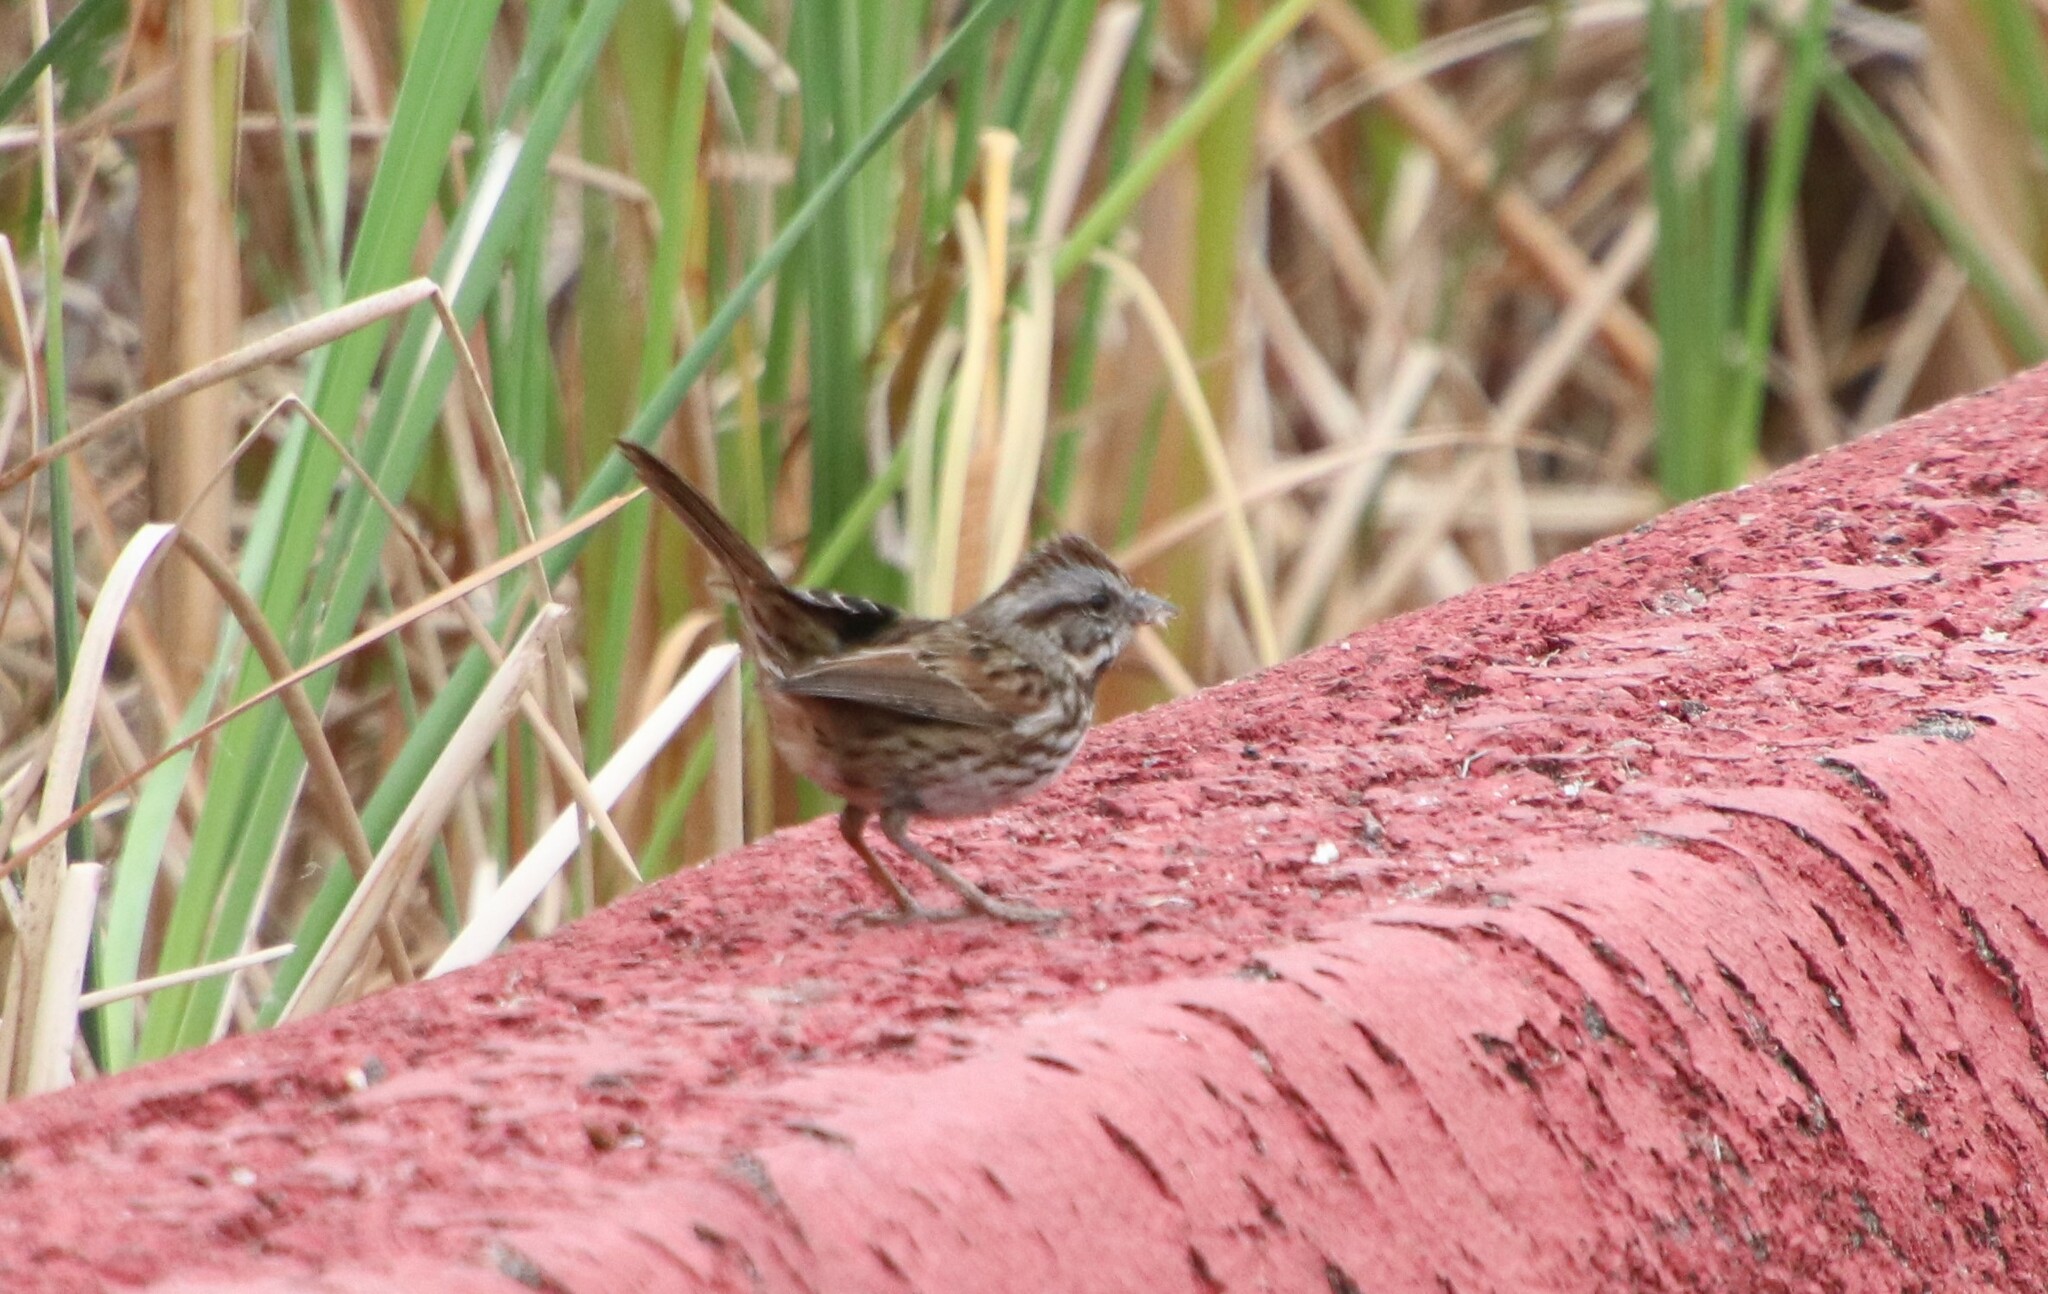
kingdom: Animalia
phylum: Chordata
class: Aves
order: Passeriformes
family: Passerellidae
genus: Melospiza
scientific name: Melospiza melodia
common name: Song sparrow
